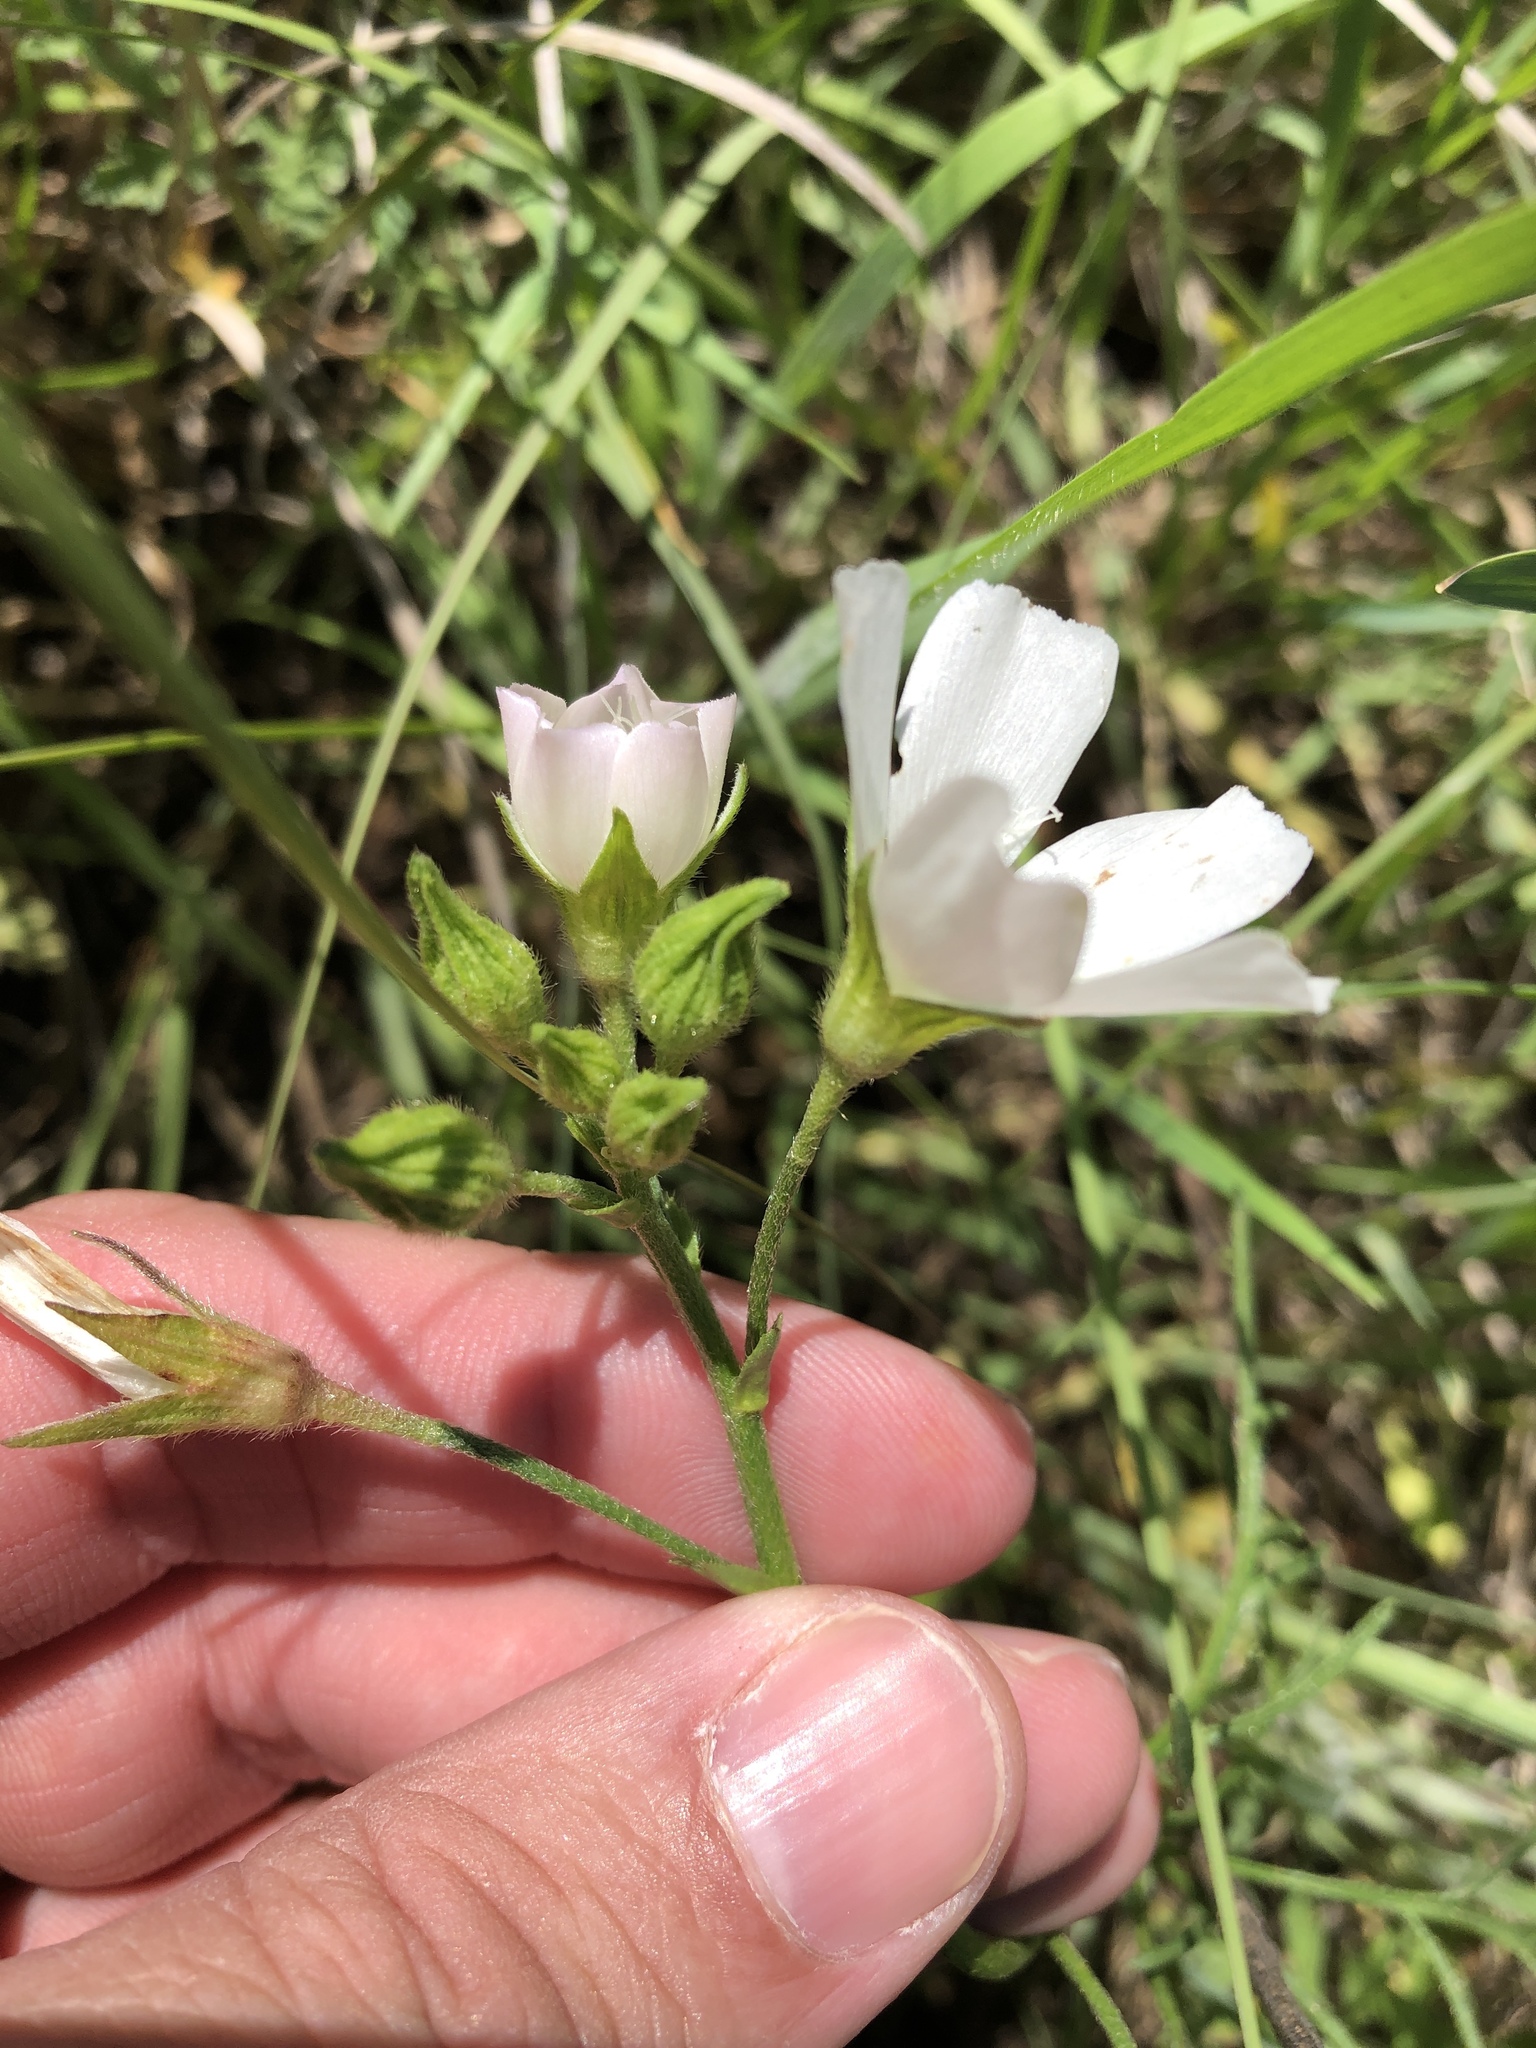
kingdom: Plantae
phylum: Tracheophyta
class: Magnoliopsida
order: Malvales
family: Malvaceae
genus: Callirhoe
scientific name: Callirhoe alcaeoides
